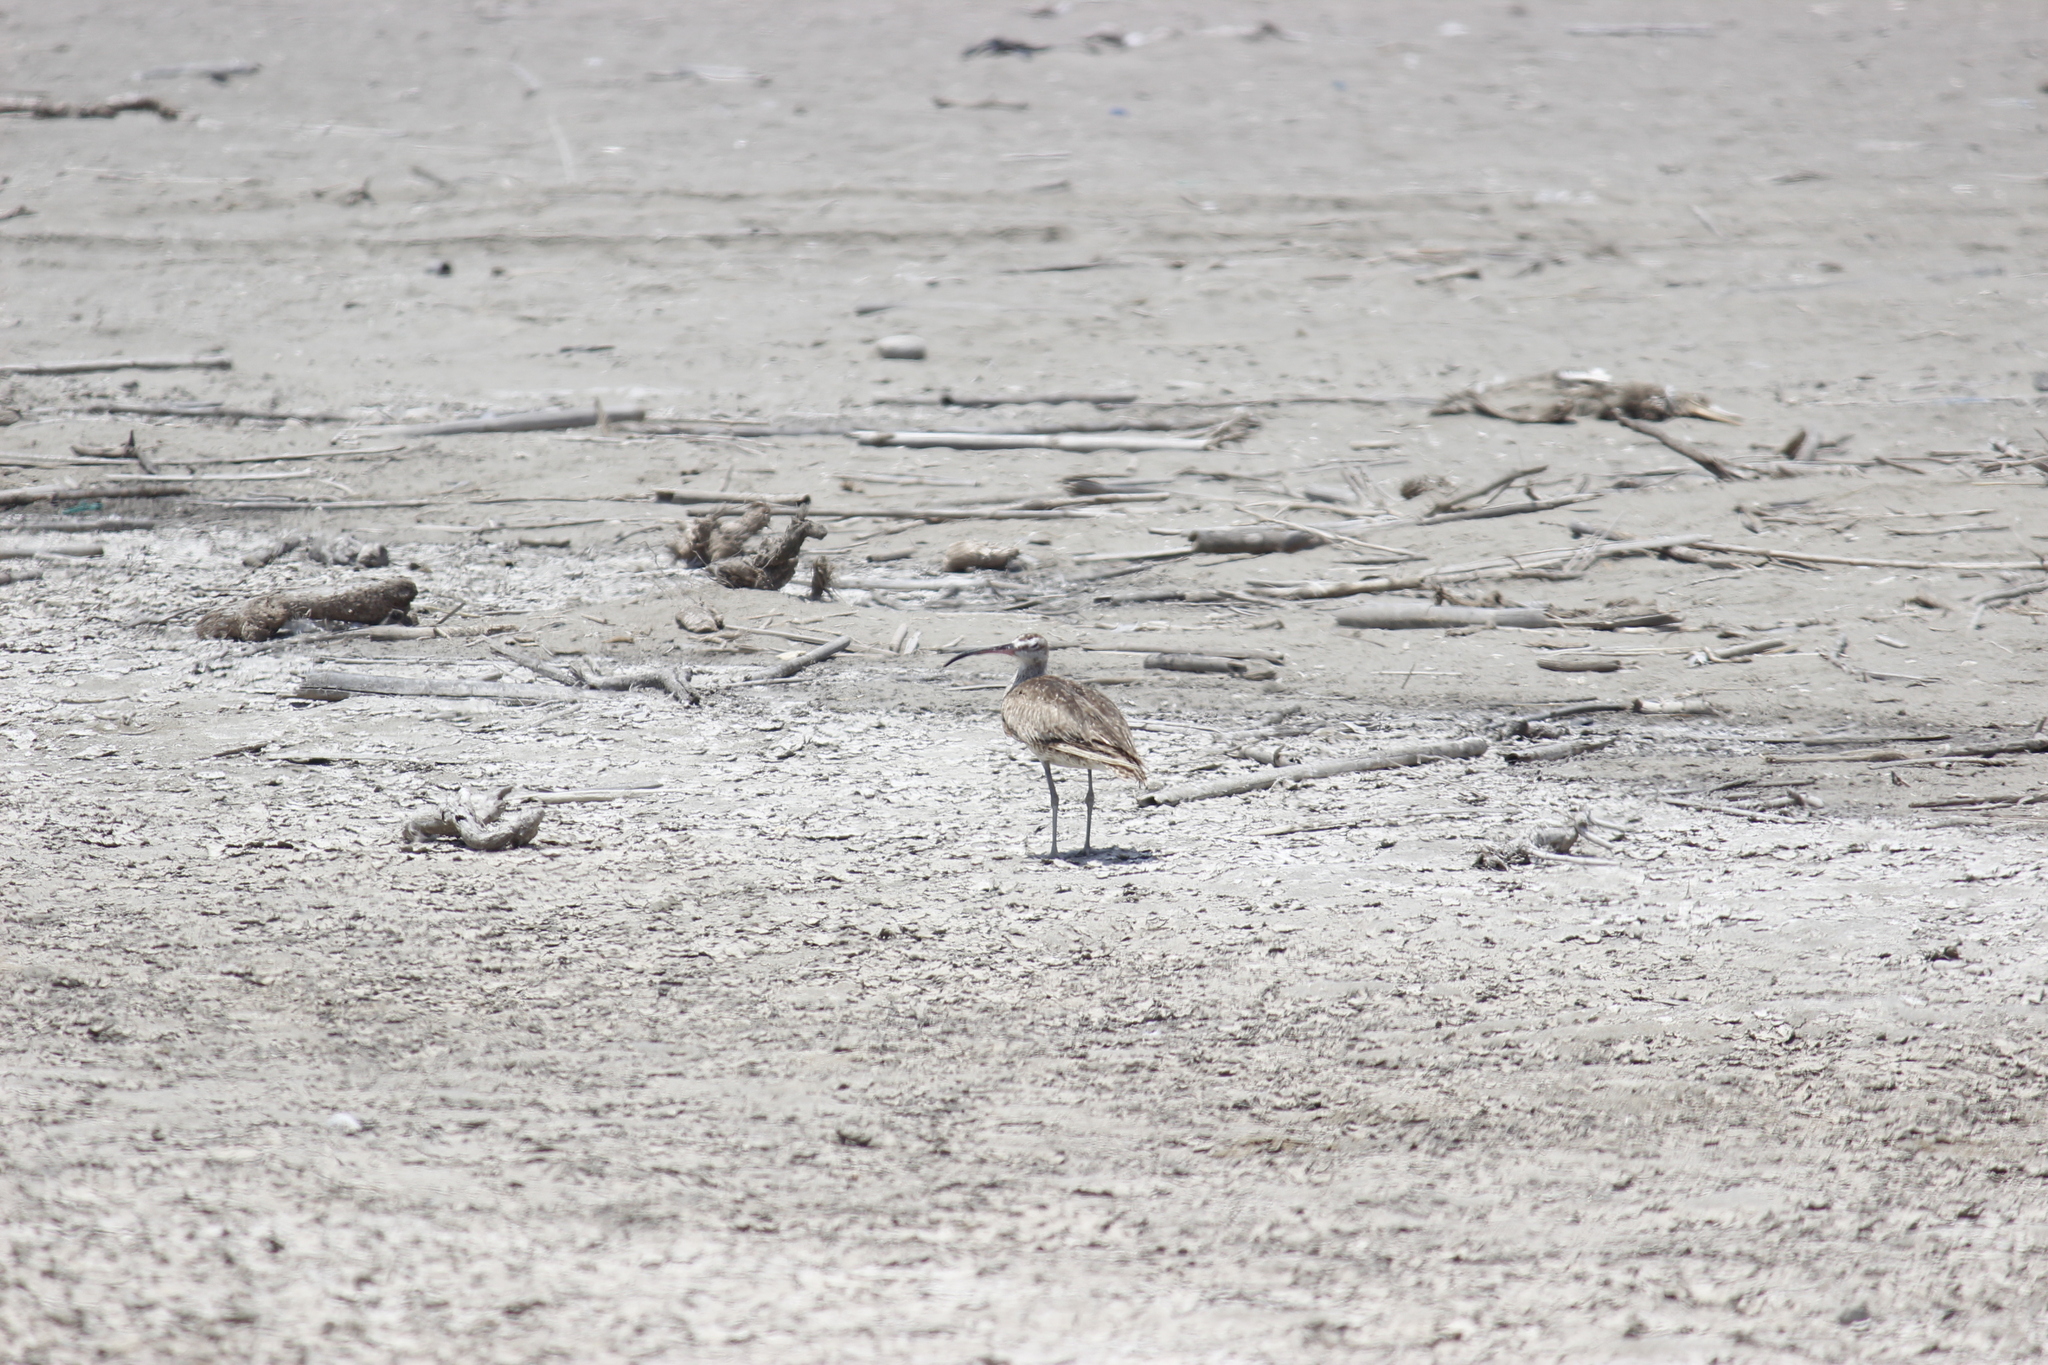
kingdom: Animalia
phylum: Chordata
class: Aves
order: Charadriiformes
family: Scolopacidae
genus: Numenius
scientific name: Numenius phaeopus
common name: Whimbrel
